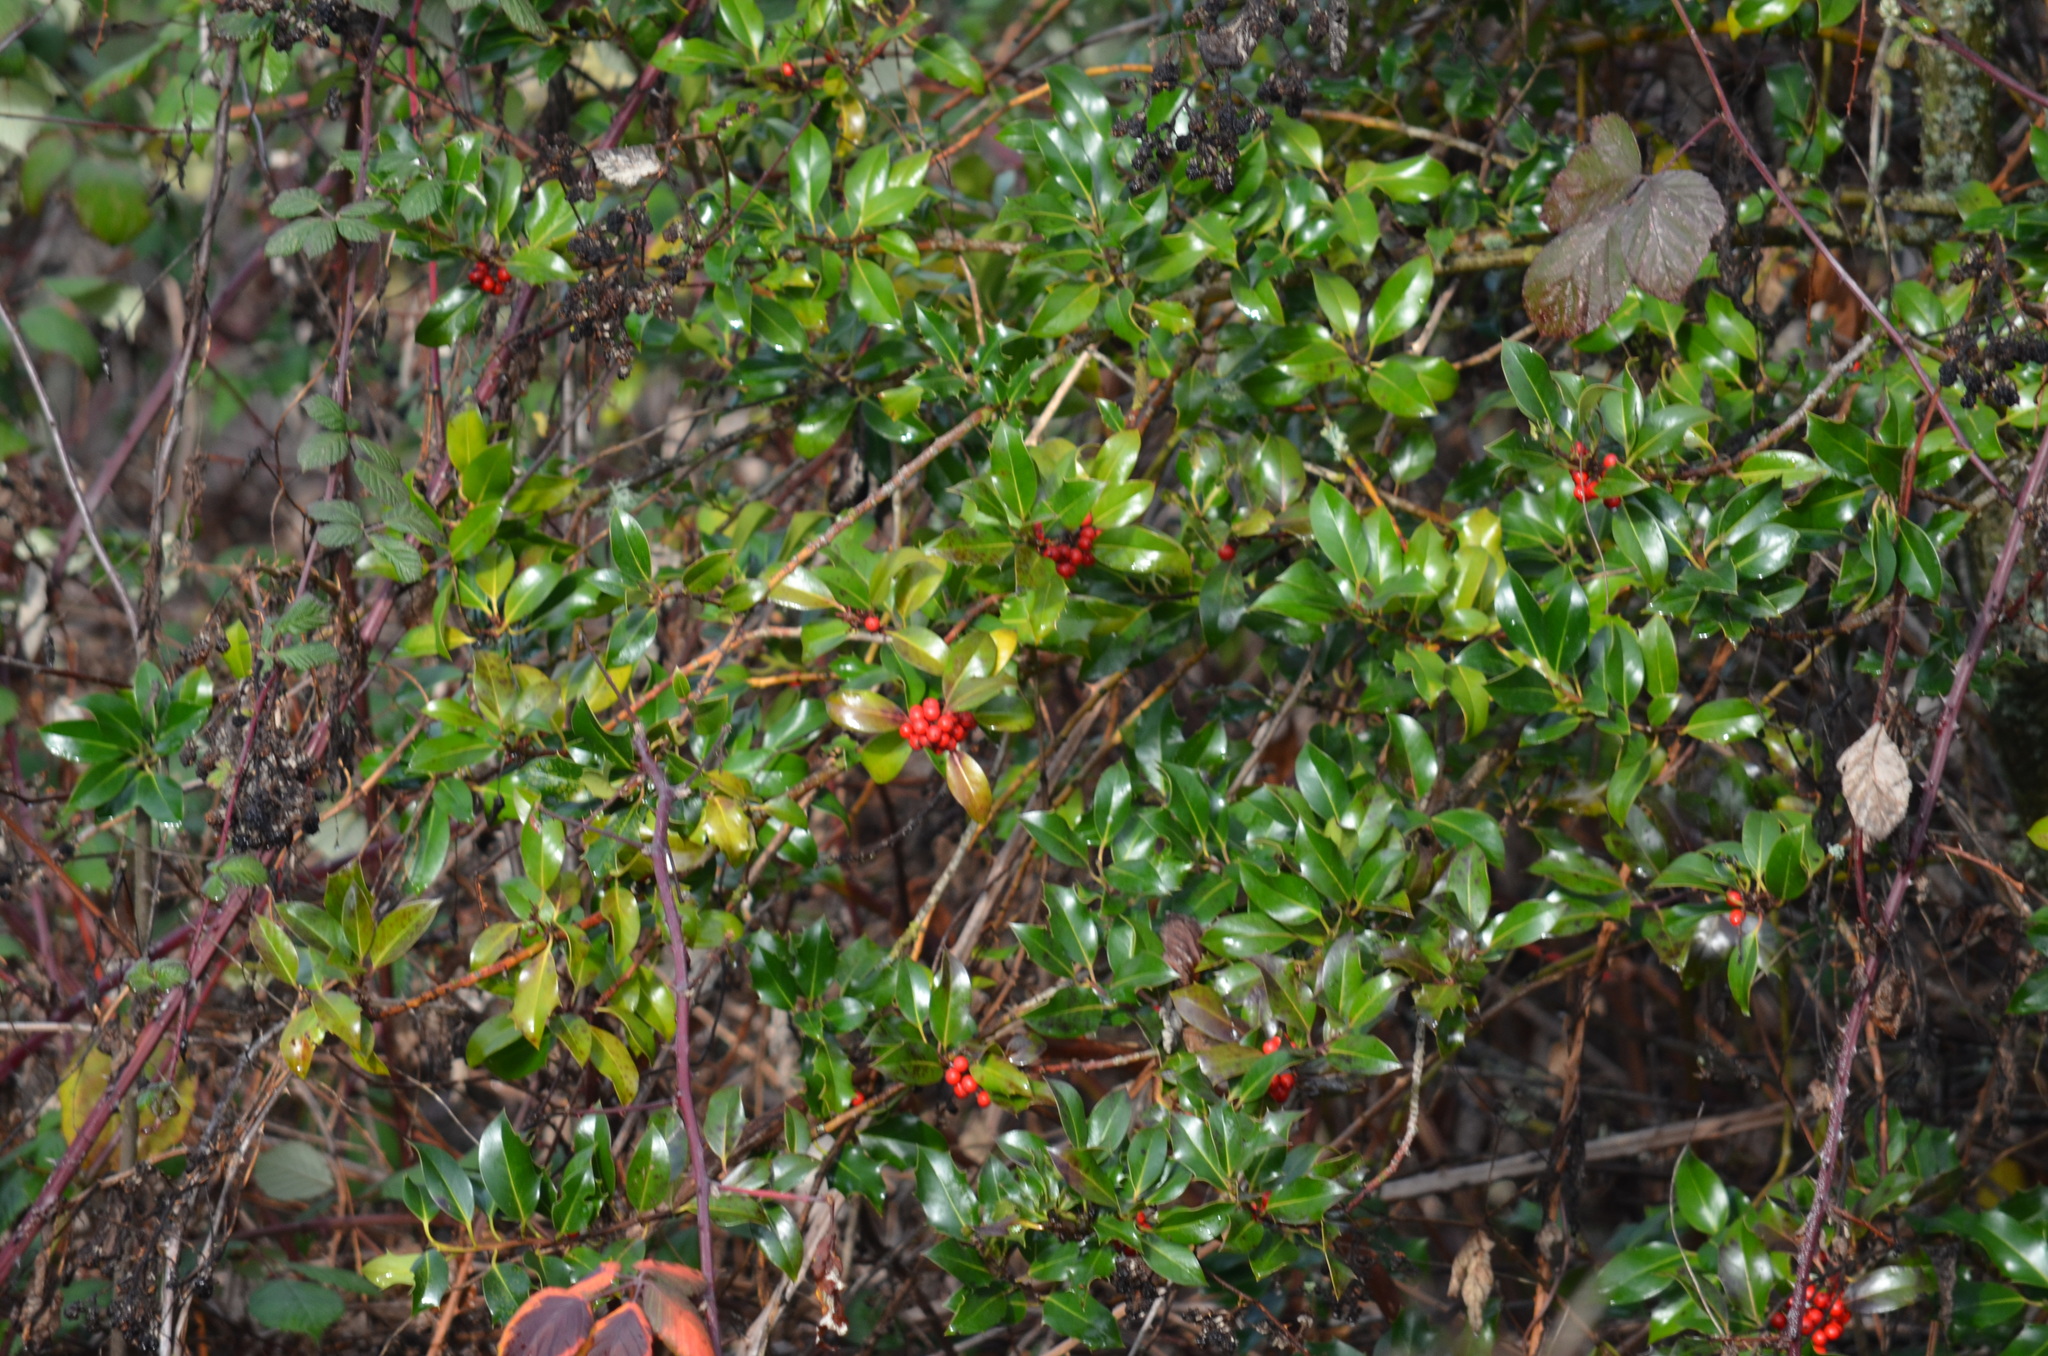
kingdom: Plantae
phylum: Tracheophyta
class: Magnoliopsida
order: Aquifoliales
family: Aquifoliaceae
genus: Ilex
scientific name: Ilex aquifolium
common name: English holly
